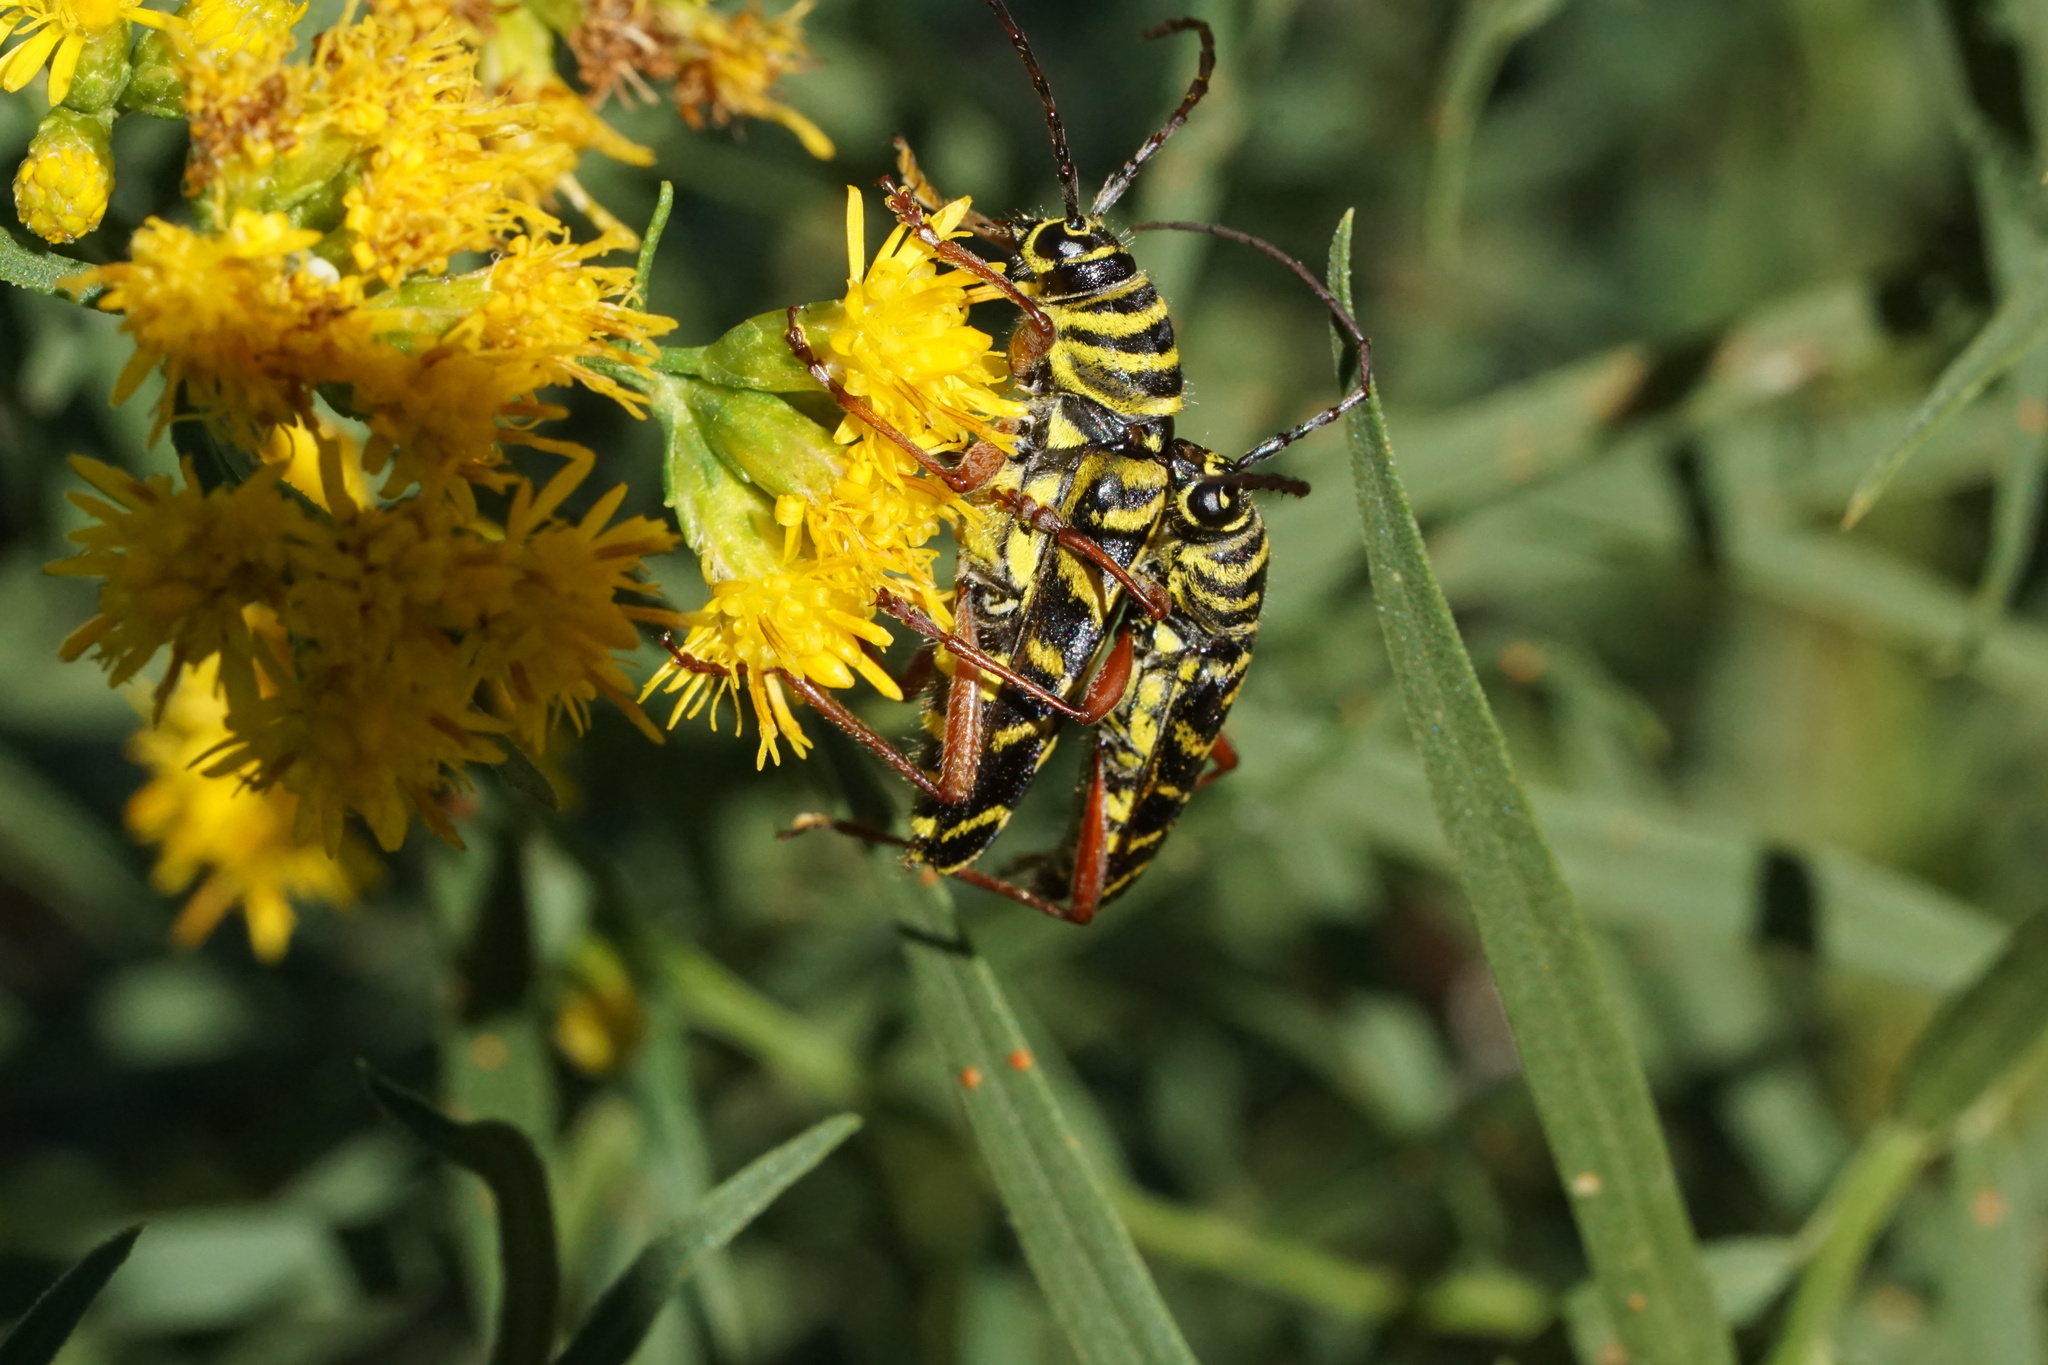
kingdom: Animalia
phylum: Arthropoda
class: Insecta
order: Coleoptera
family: Cerambycidae
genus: Megacyllene
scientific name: Megacyllene robiniae
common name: Locust borer
